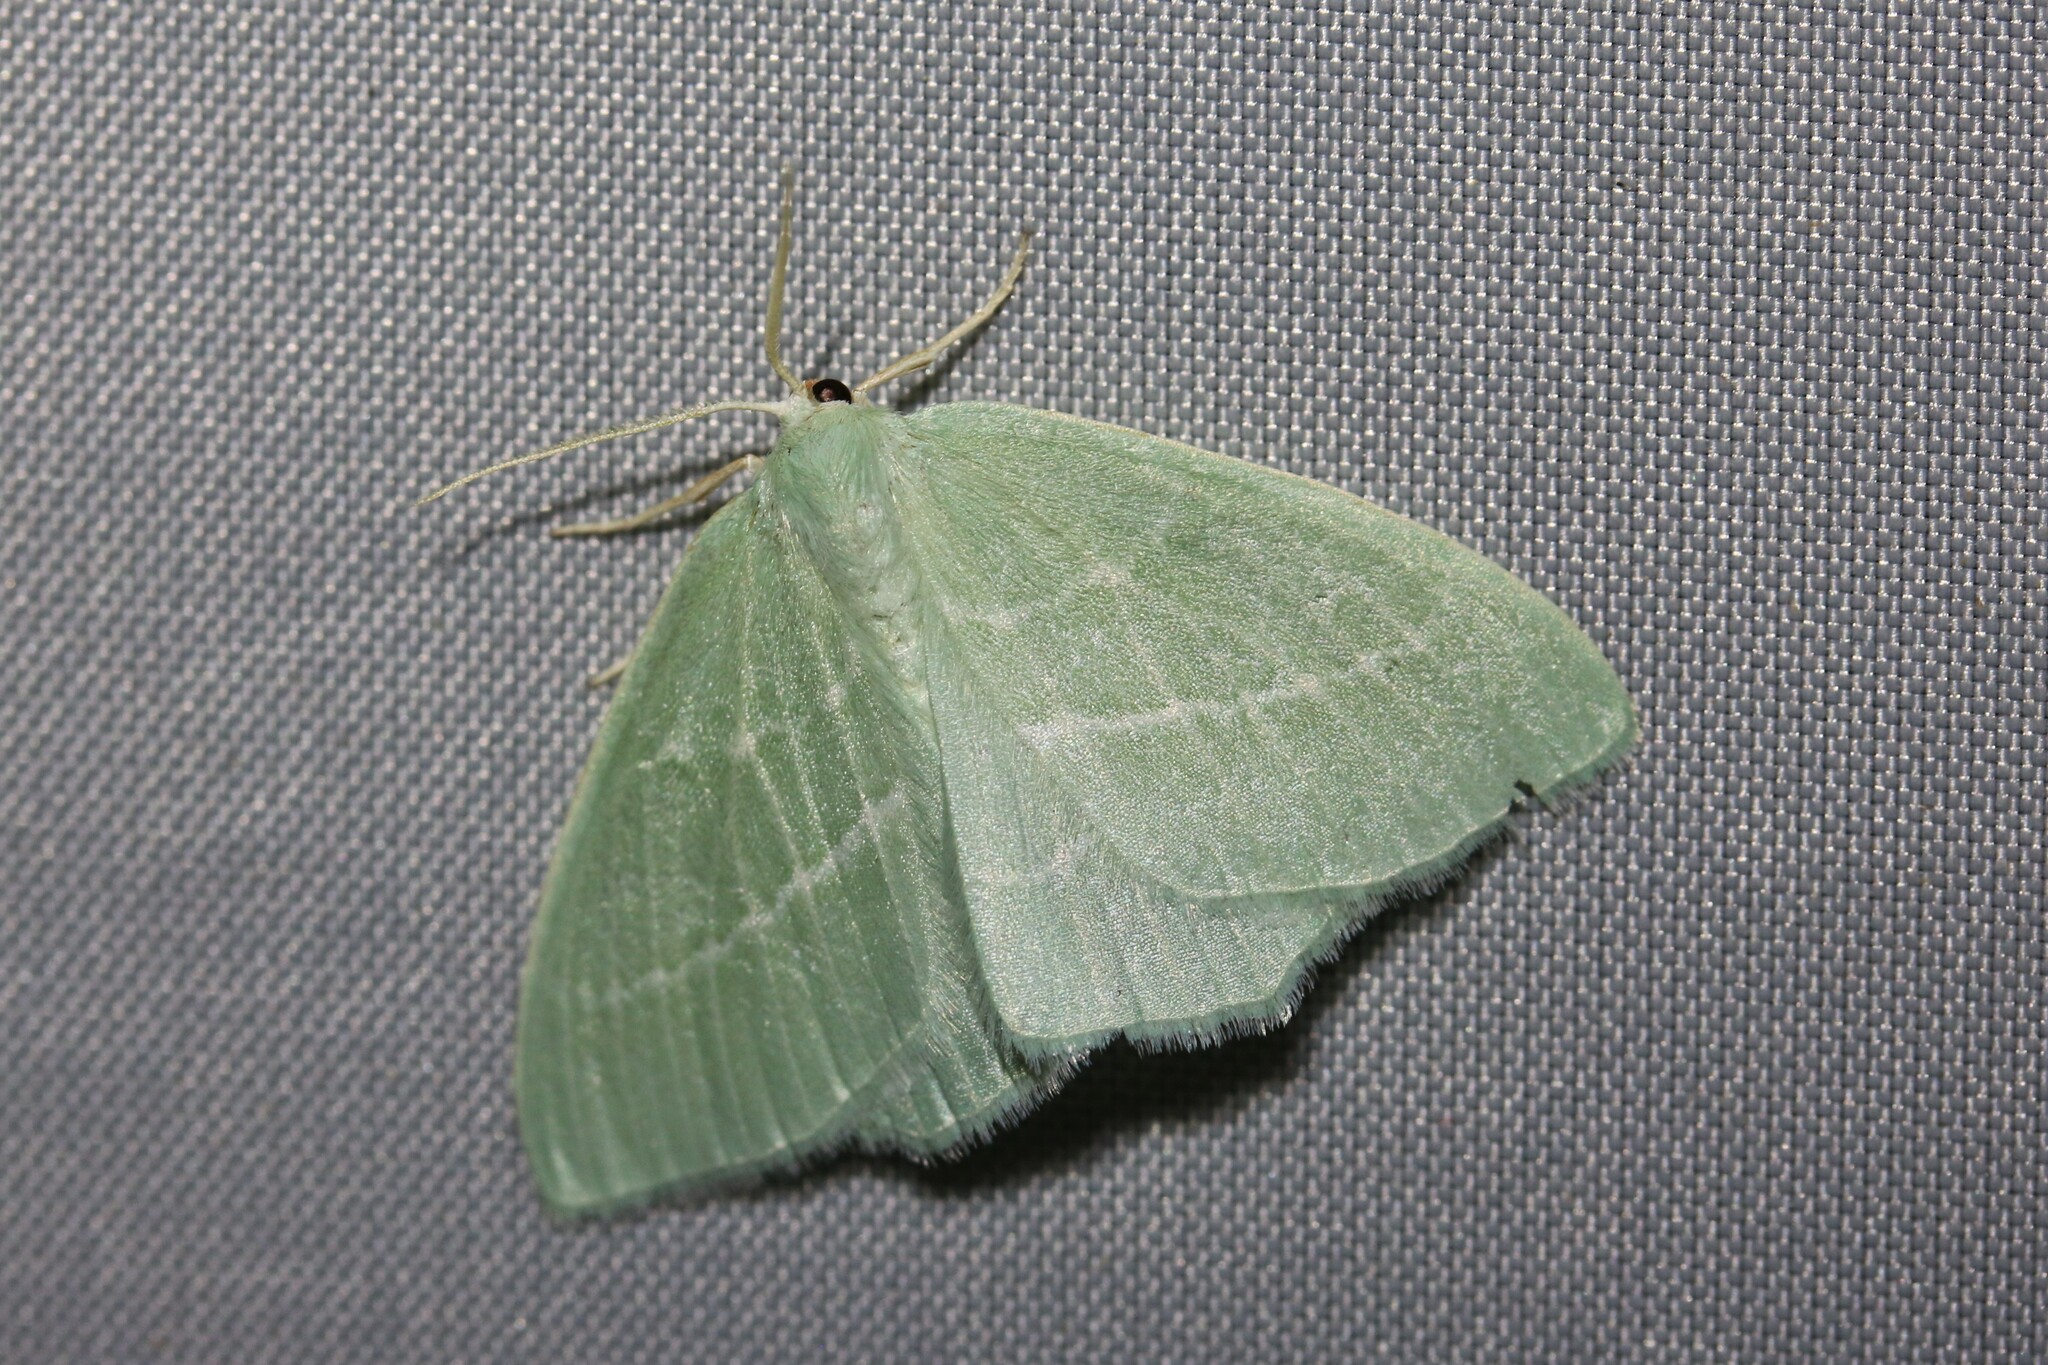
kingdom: Animalia
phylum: Arthropoda
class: Insecta
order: Lepidoptera
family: Geometridae
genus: Hemistola
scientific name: Hemistola chrysoprasaria
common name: Small emerald
